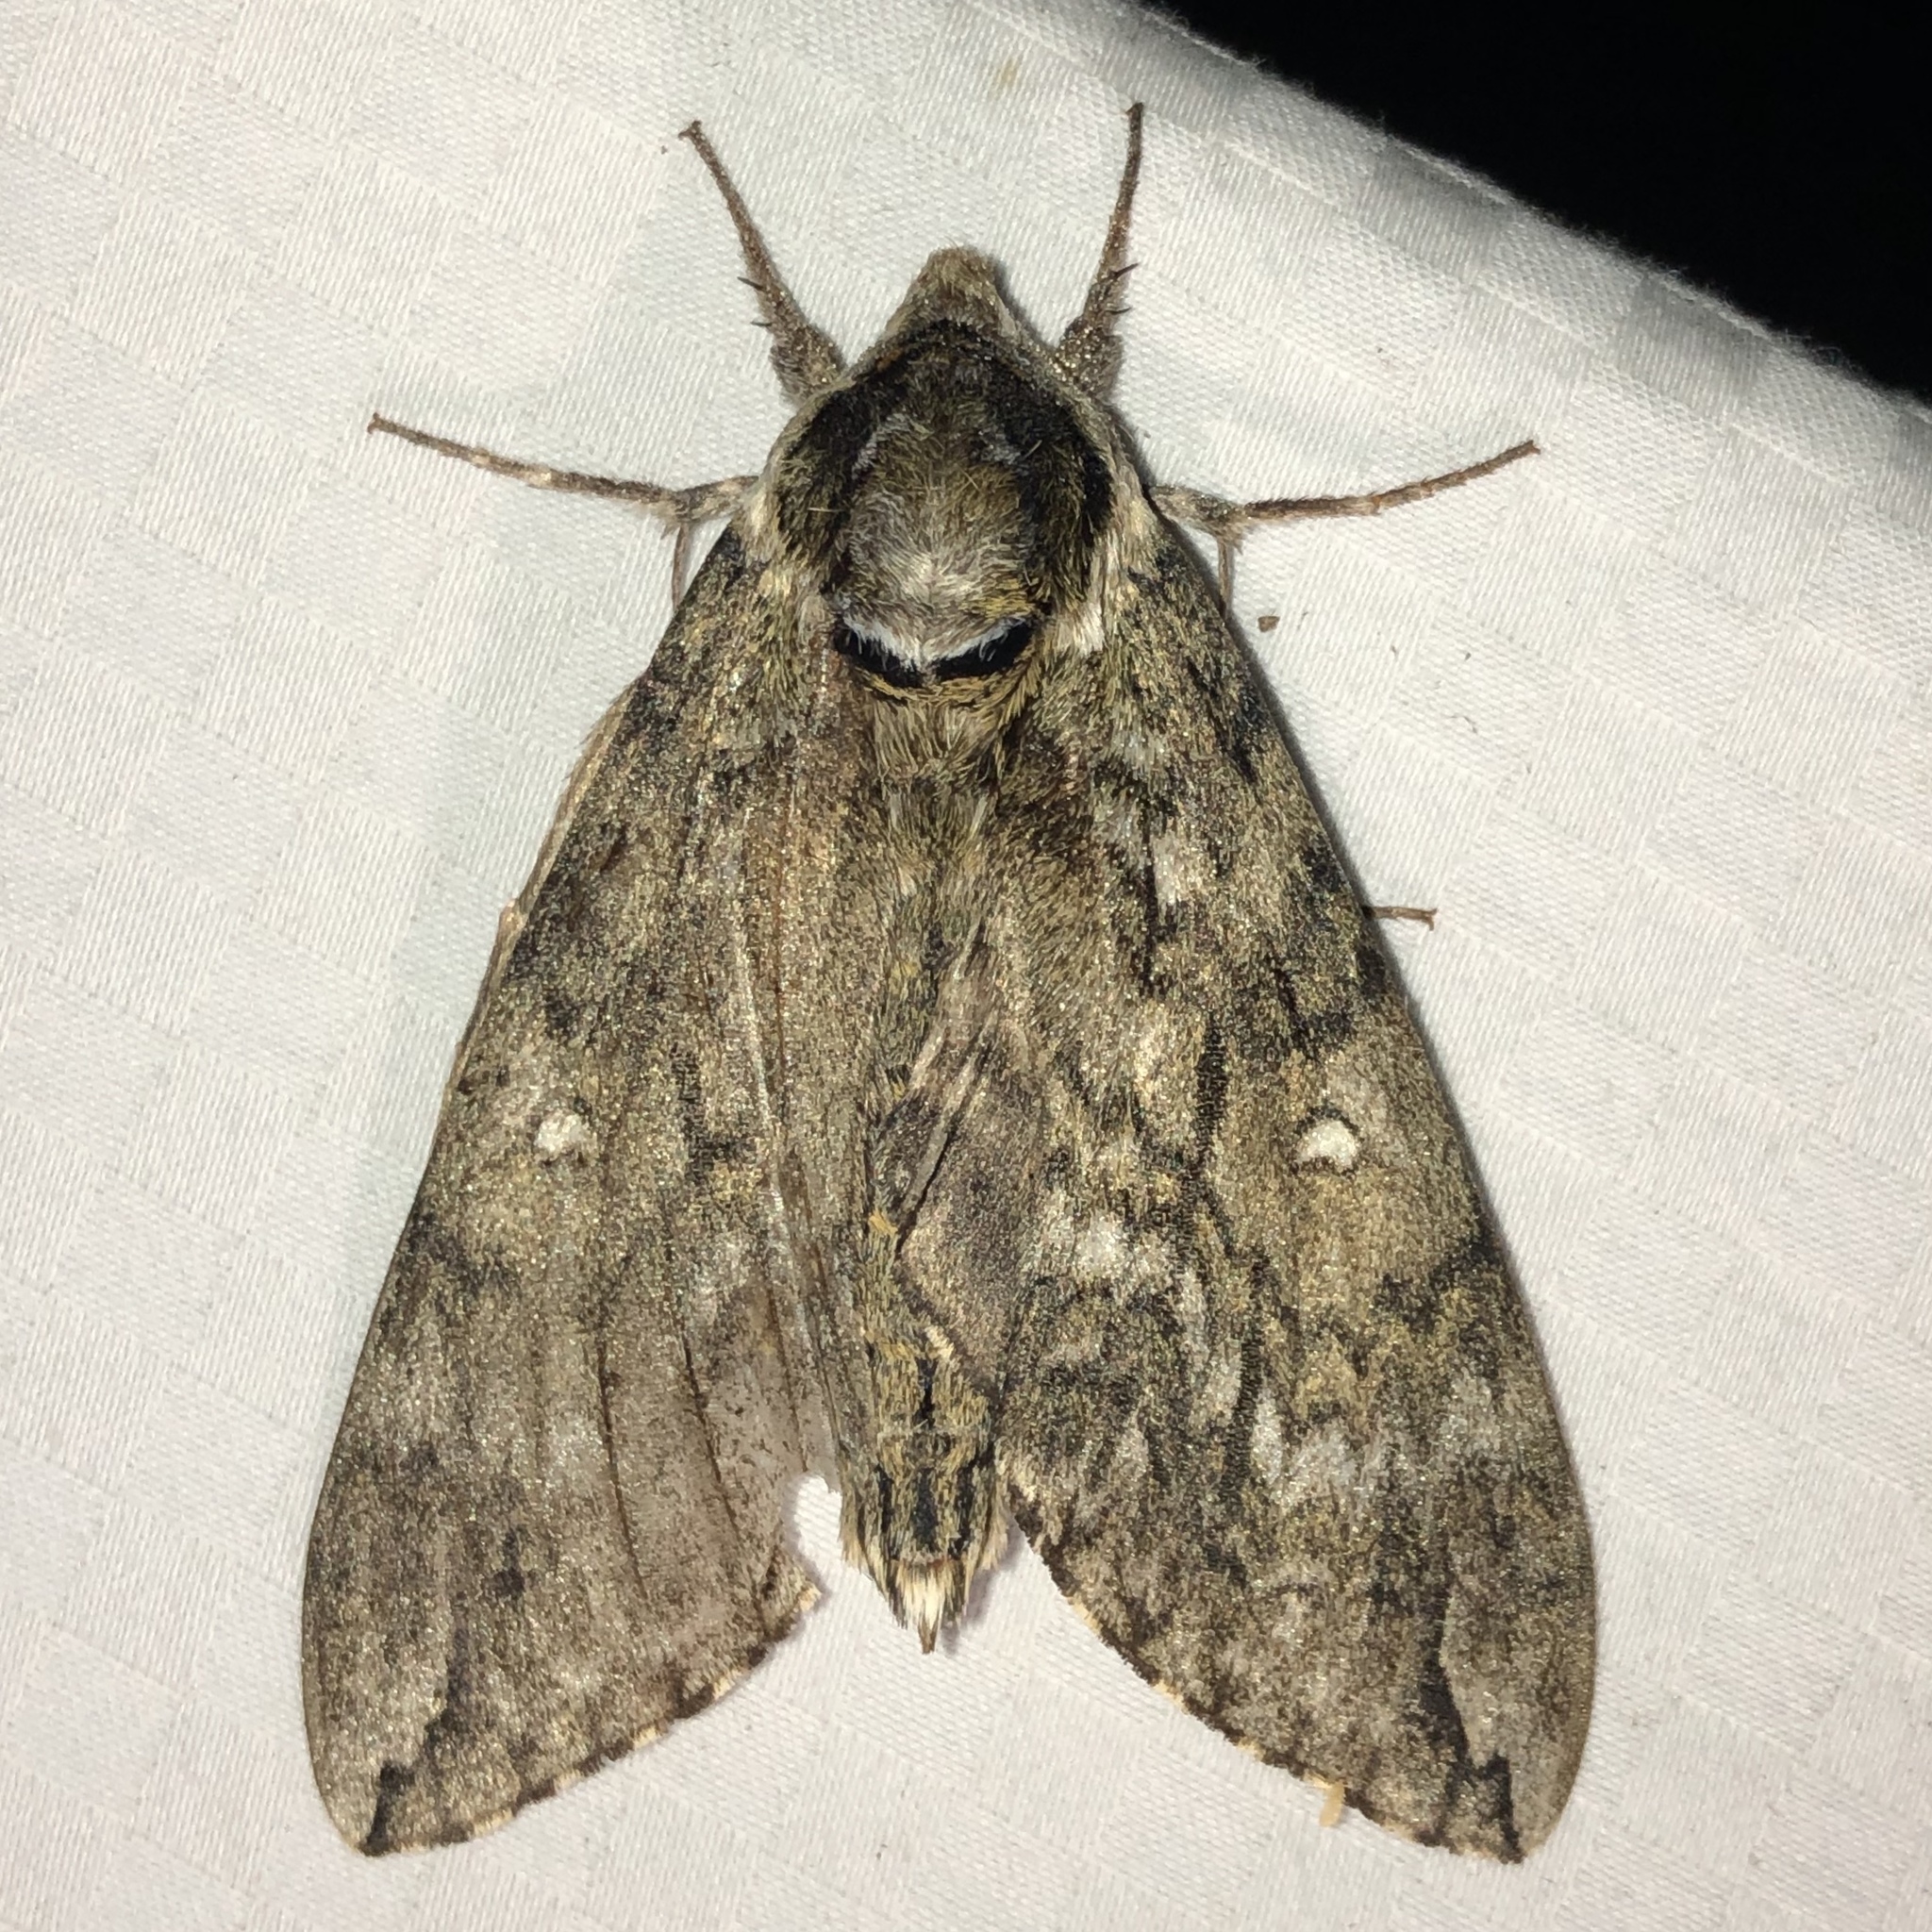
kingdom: Animalia
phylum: Arthropoda
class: Insecta
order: Lepidoptera
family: Sphingidae
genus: Ceratomia
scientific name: Ceratomia undulosa
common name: Waved sphinx
